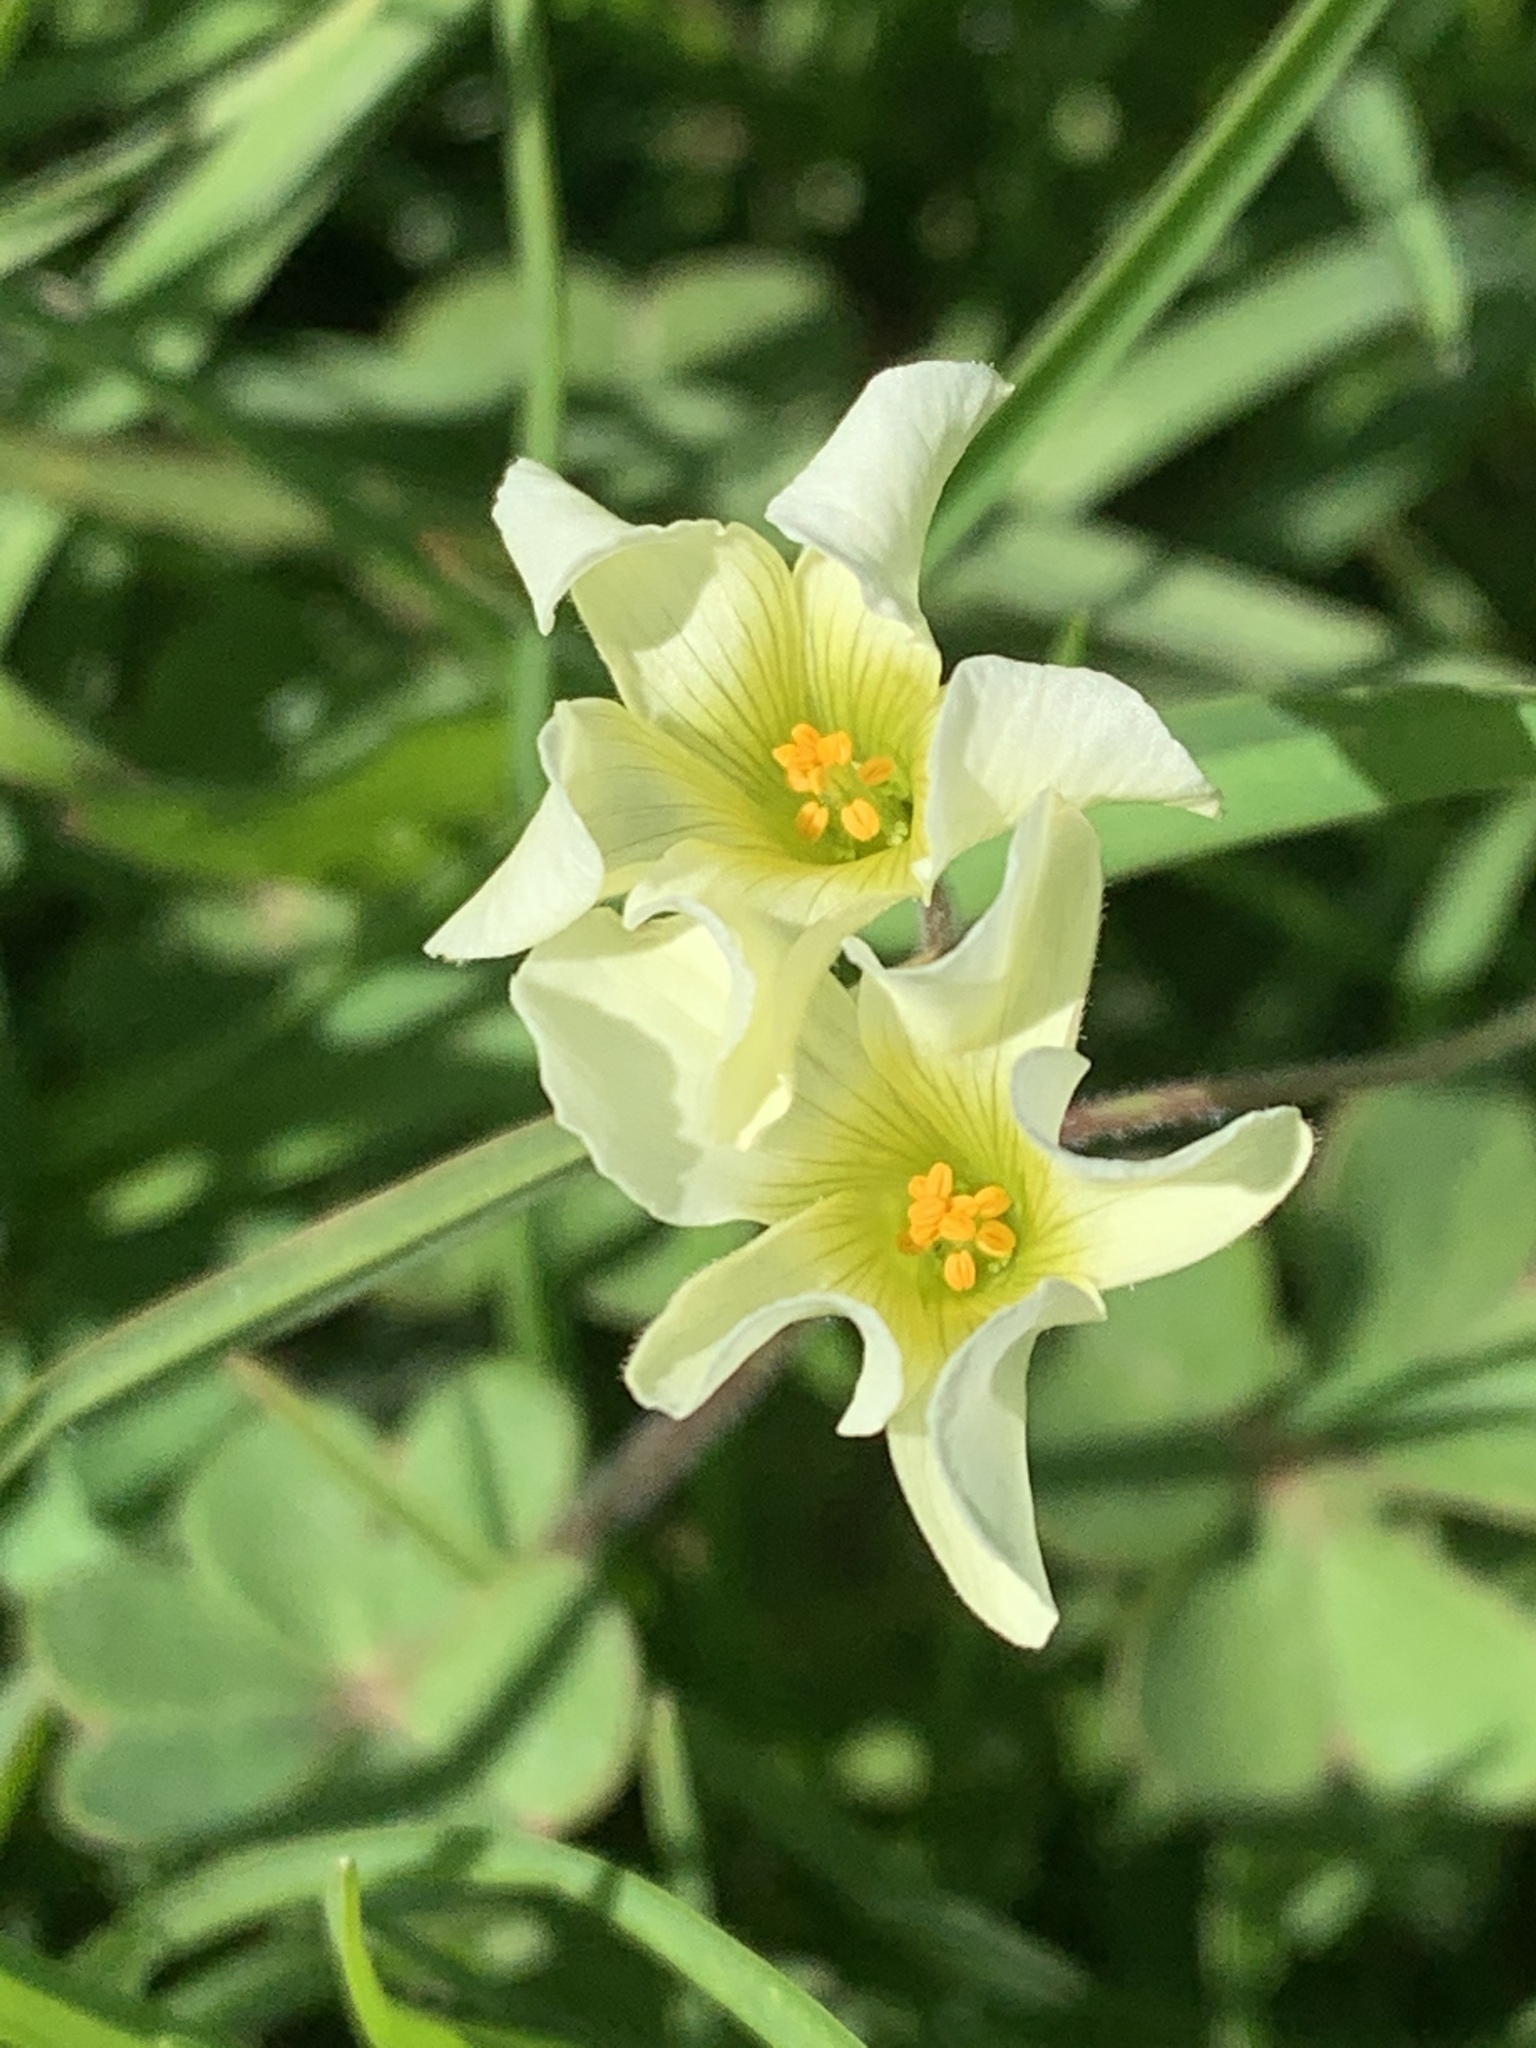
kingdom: Plantae
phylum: Tracheophyta
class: Magnoliopsida
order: Oxalidales
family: Oxalidaceae
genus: Oxalis
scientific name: Oxalis pes-caprae
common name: Bermuda-buttercup
